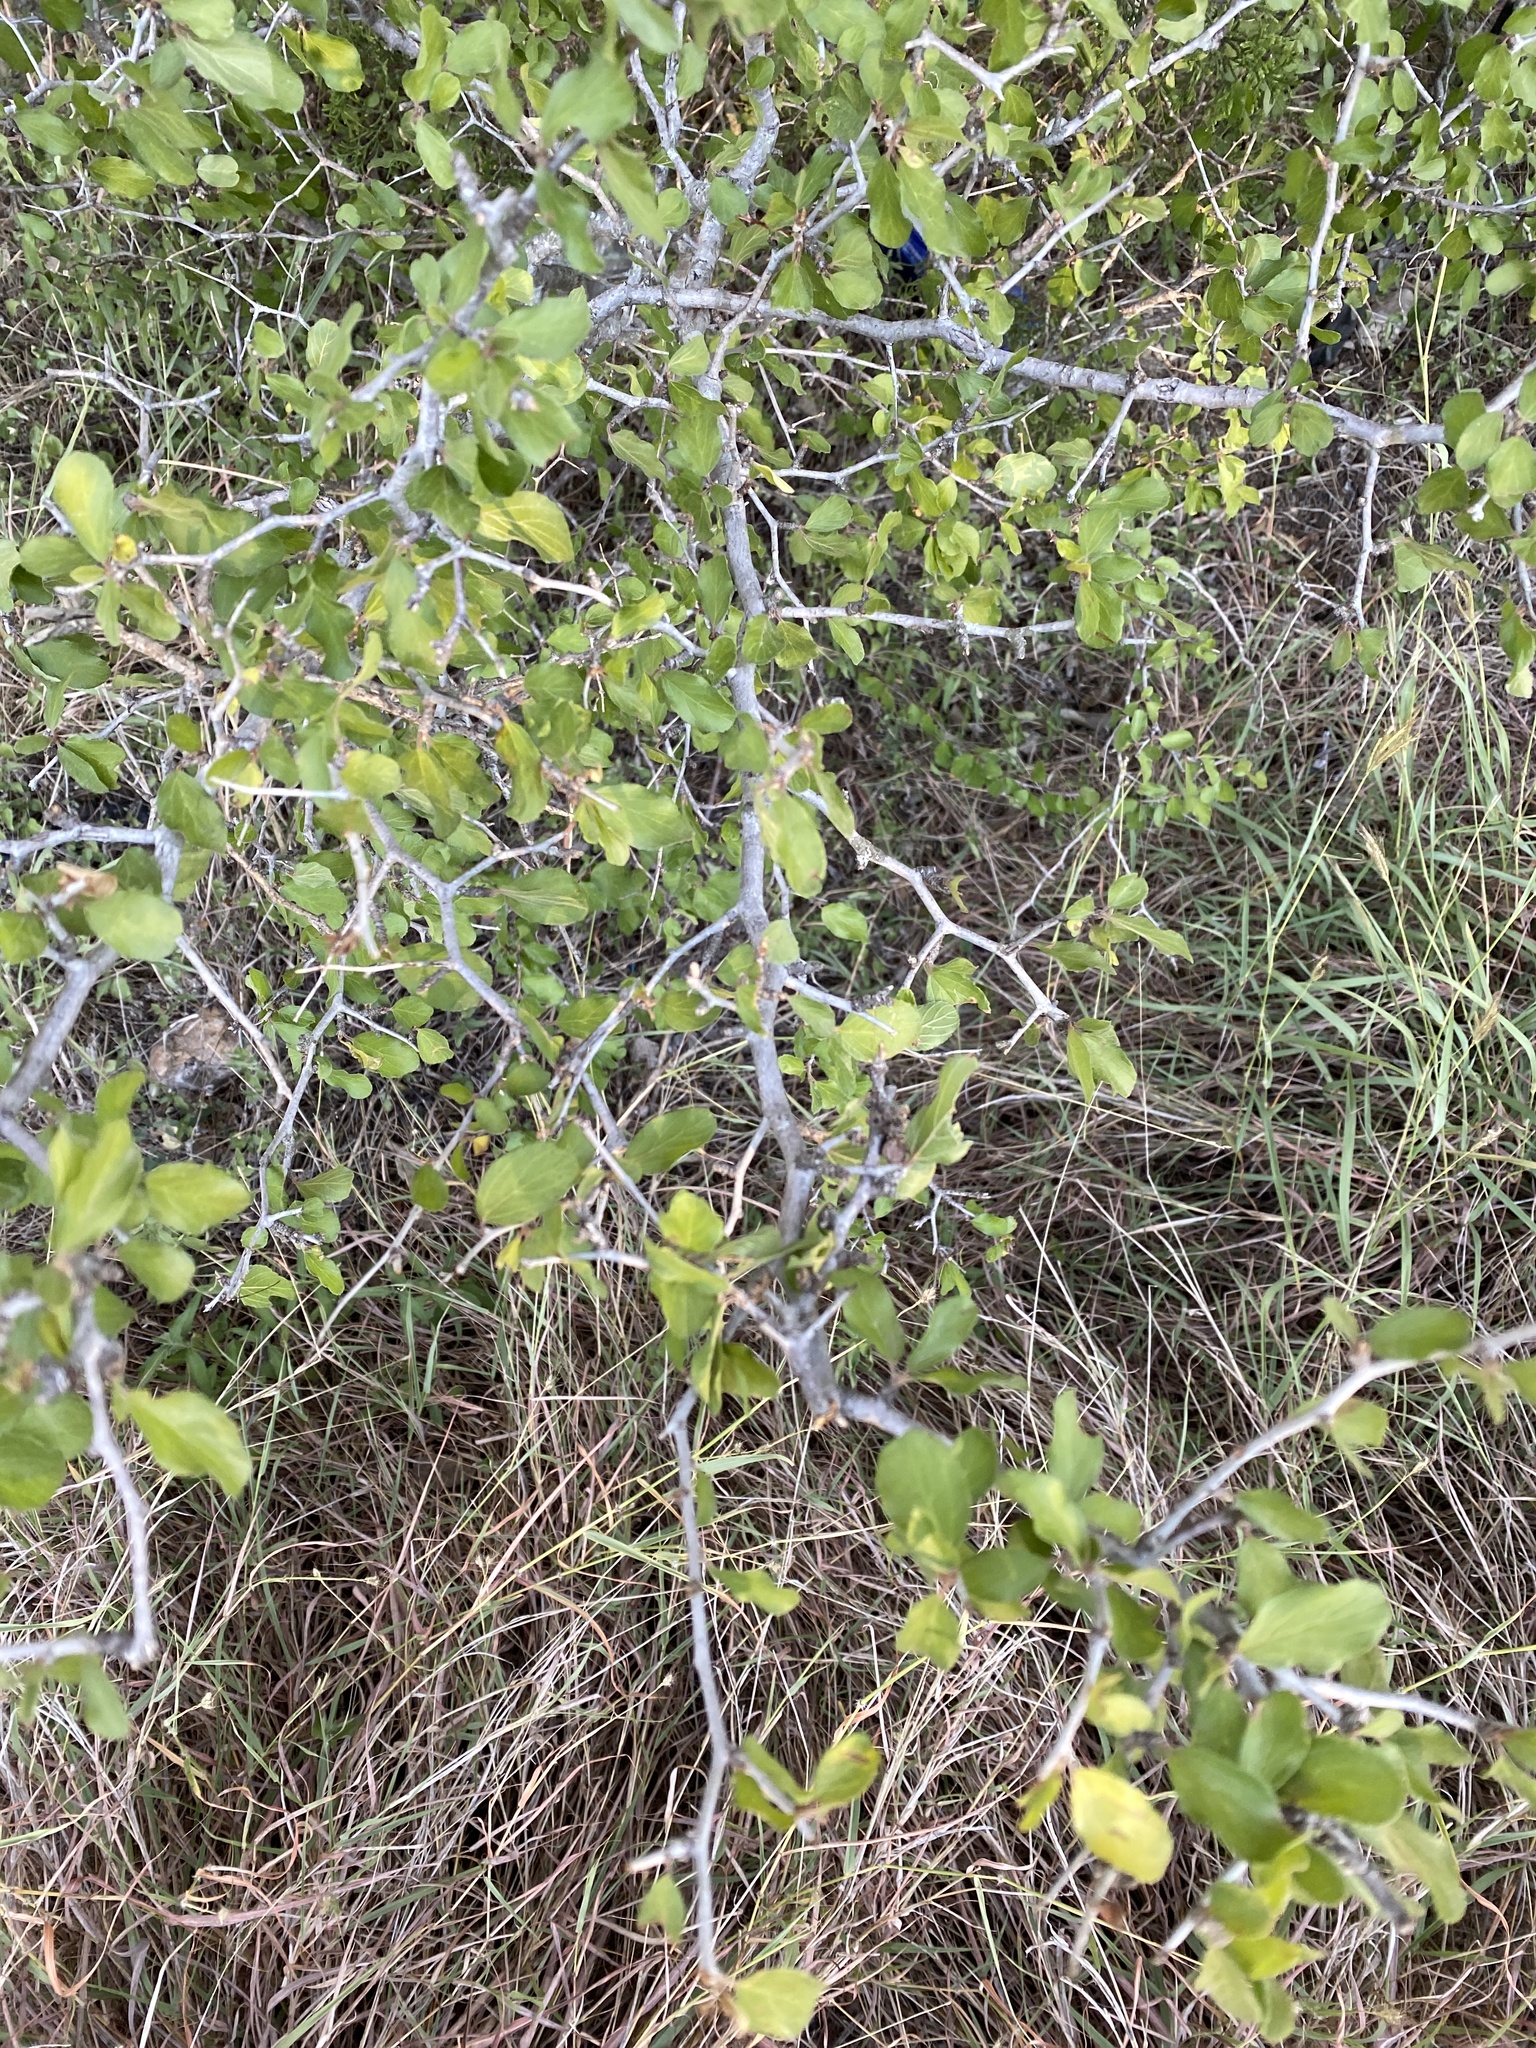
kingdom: Plantae
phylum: Tracheophyta
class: Magnoliopsida
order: Rosales
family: Rhamnaceae
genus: Condalia
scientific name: Condalia hookeri
